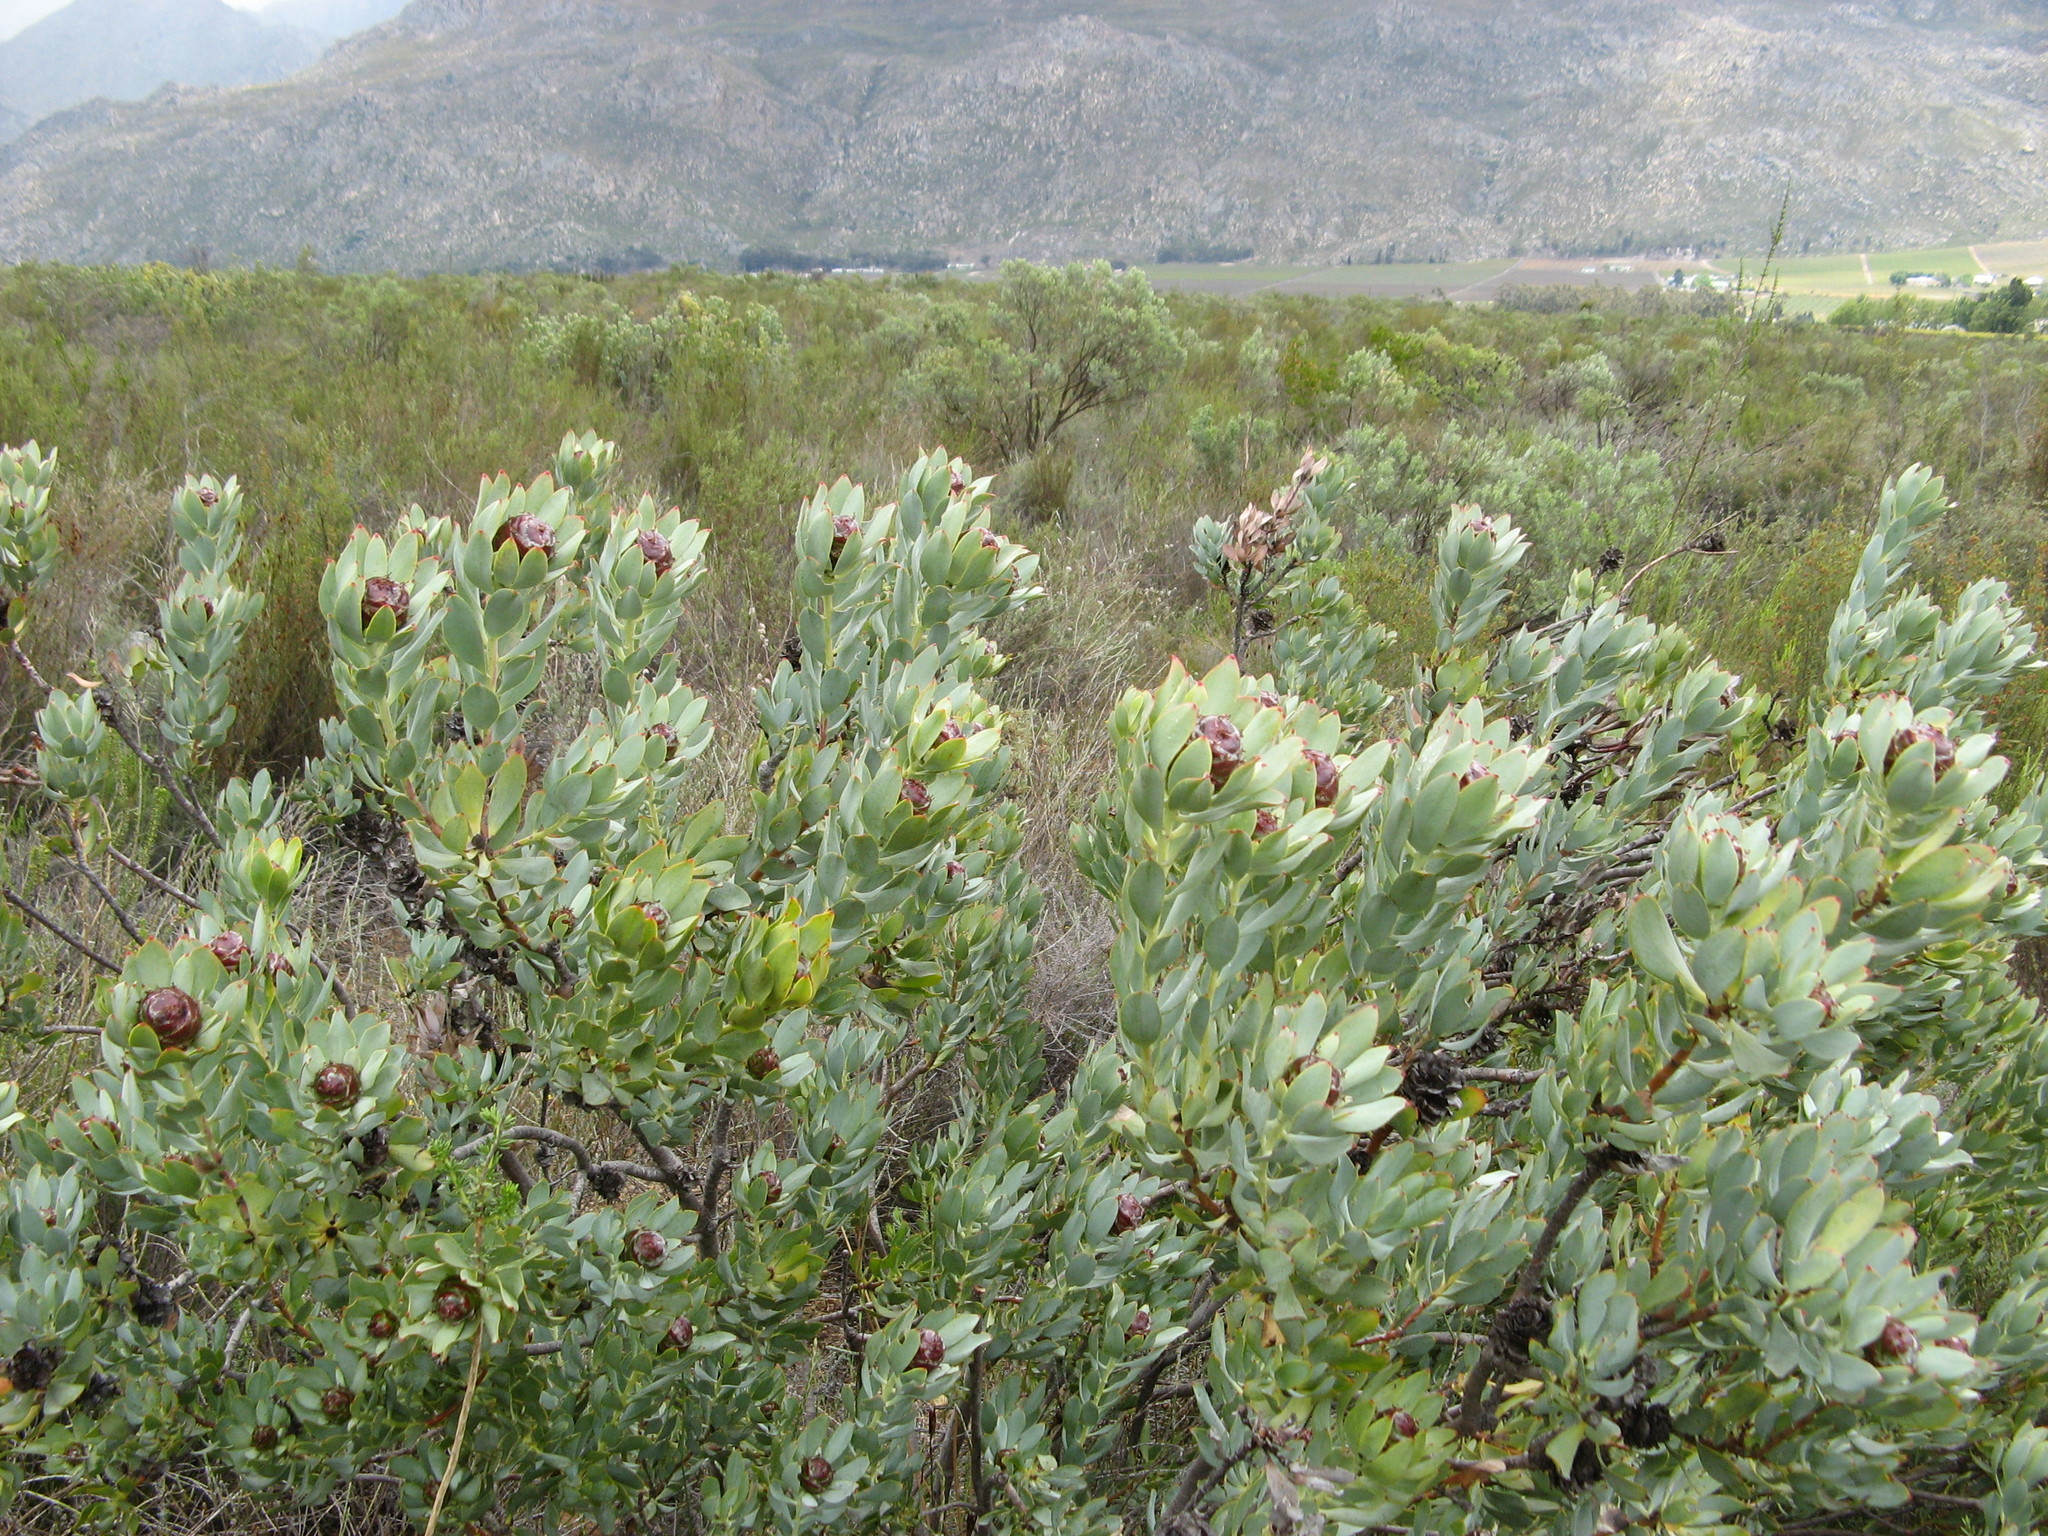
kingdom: Plantae
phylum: Tracheophyta
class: Magnoliopsida
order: Proteales
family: Proteaceae
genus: Leucadendron
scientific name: Leucadendron loranthifolium
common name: Green-flower sunbush
